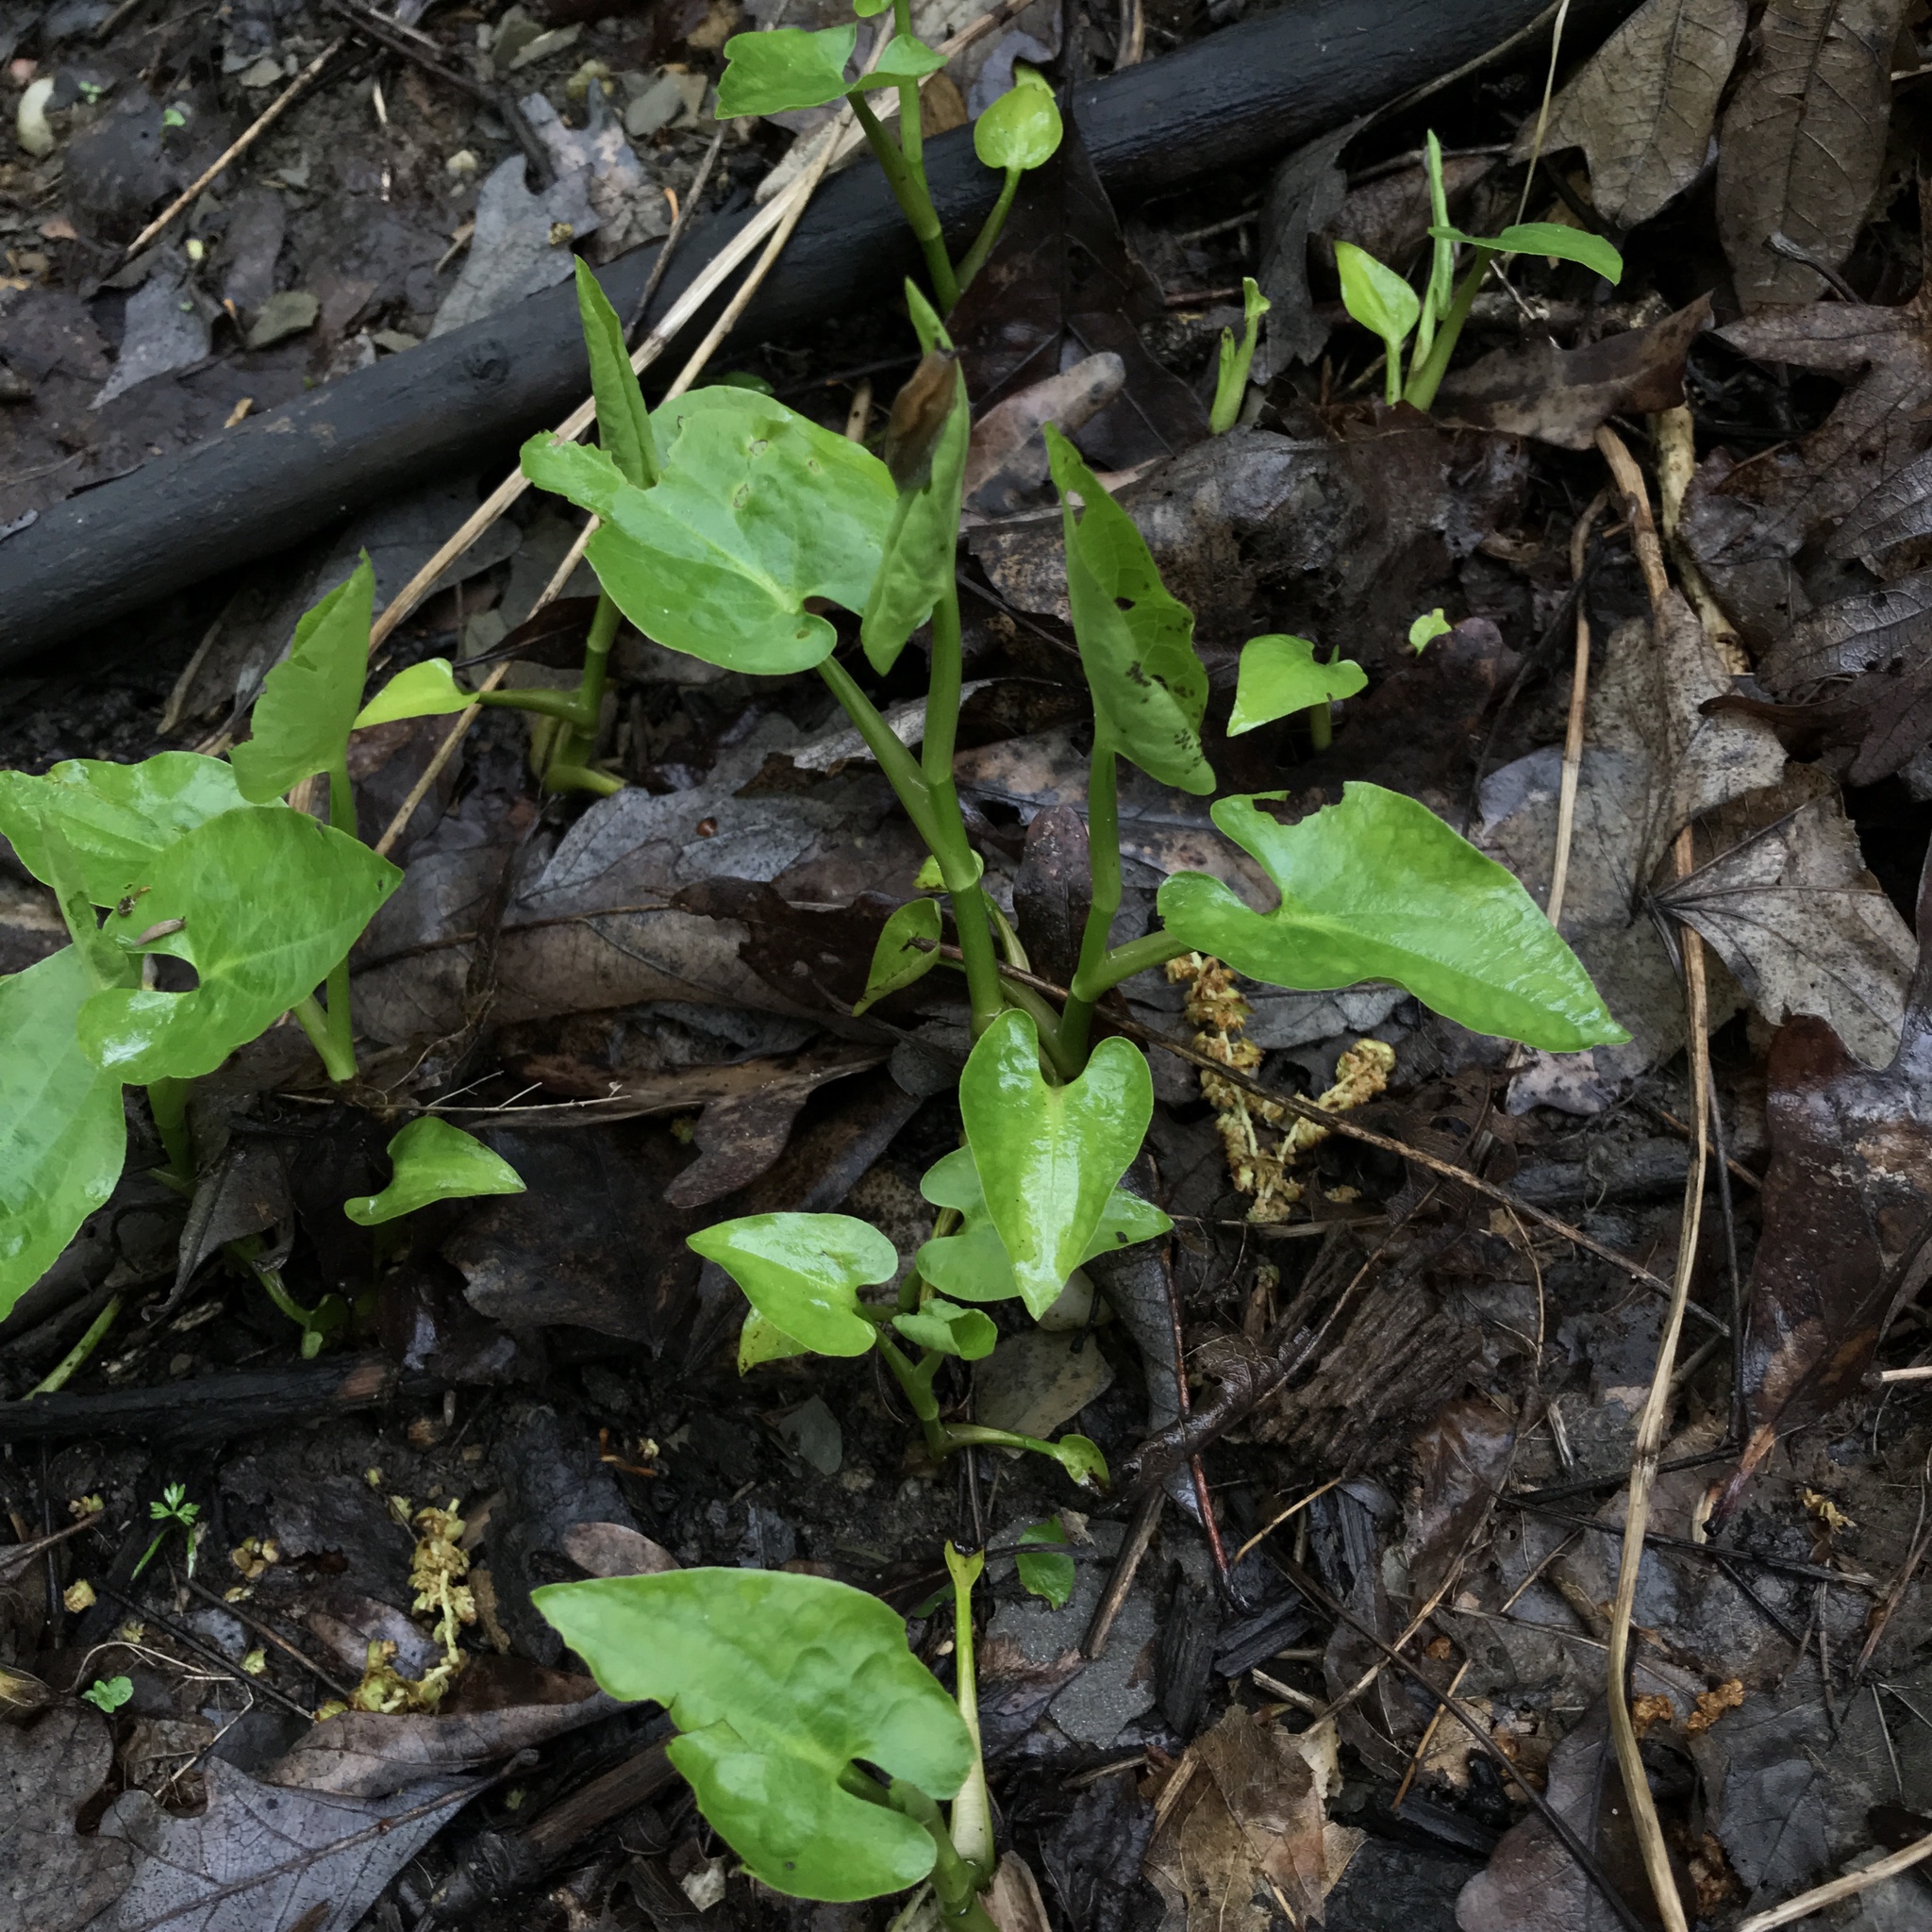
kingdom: Plantae
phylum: Tracheophyta
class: Magnoliopsida
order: Piperales
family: Saururaceae
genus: Saururus
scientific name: Saururus cernuus
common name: Lizard's-tail
